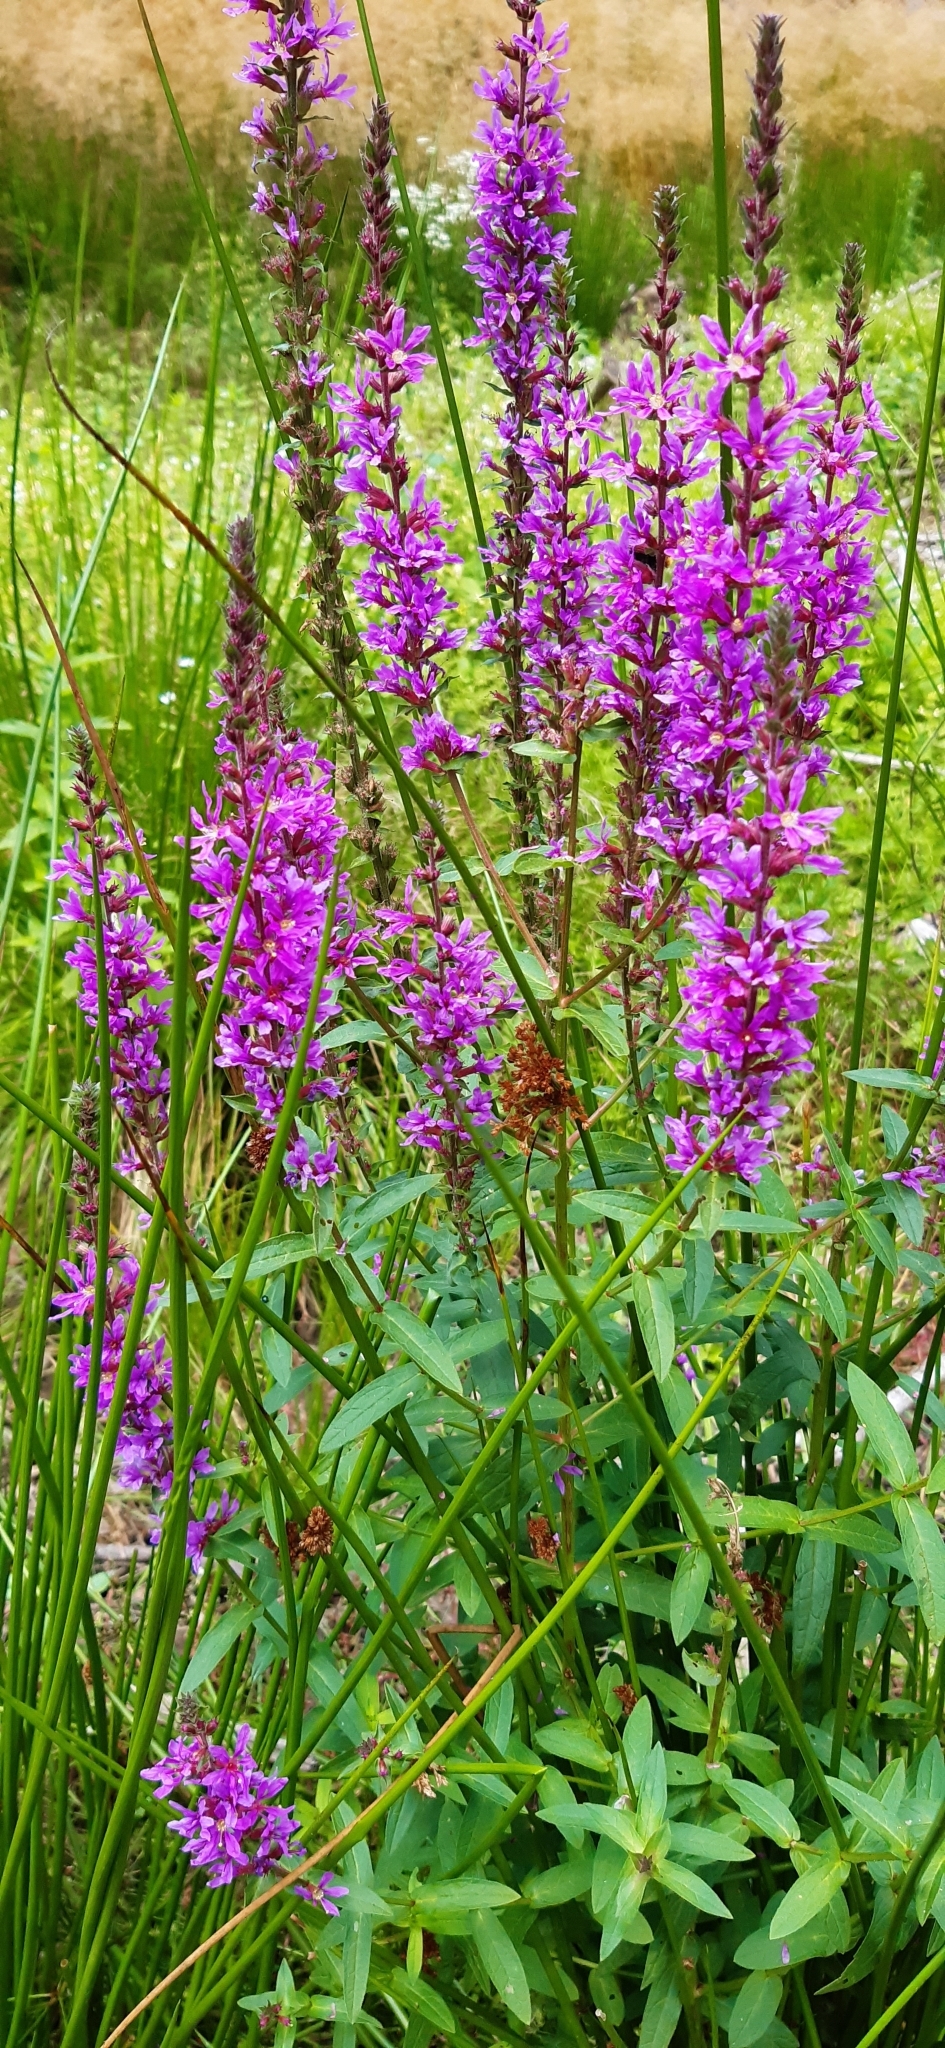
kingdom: Plantae
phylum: Tracheophyta
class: Magnoliopsida
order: Myrtales
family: Lythraceae
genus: Lythrum
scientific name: Lythrum salicaria
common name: Purple loosestrife
